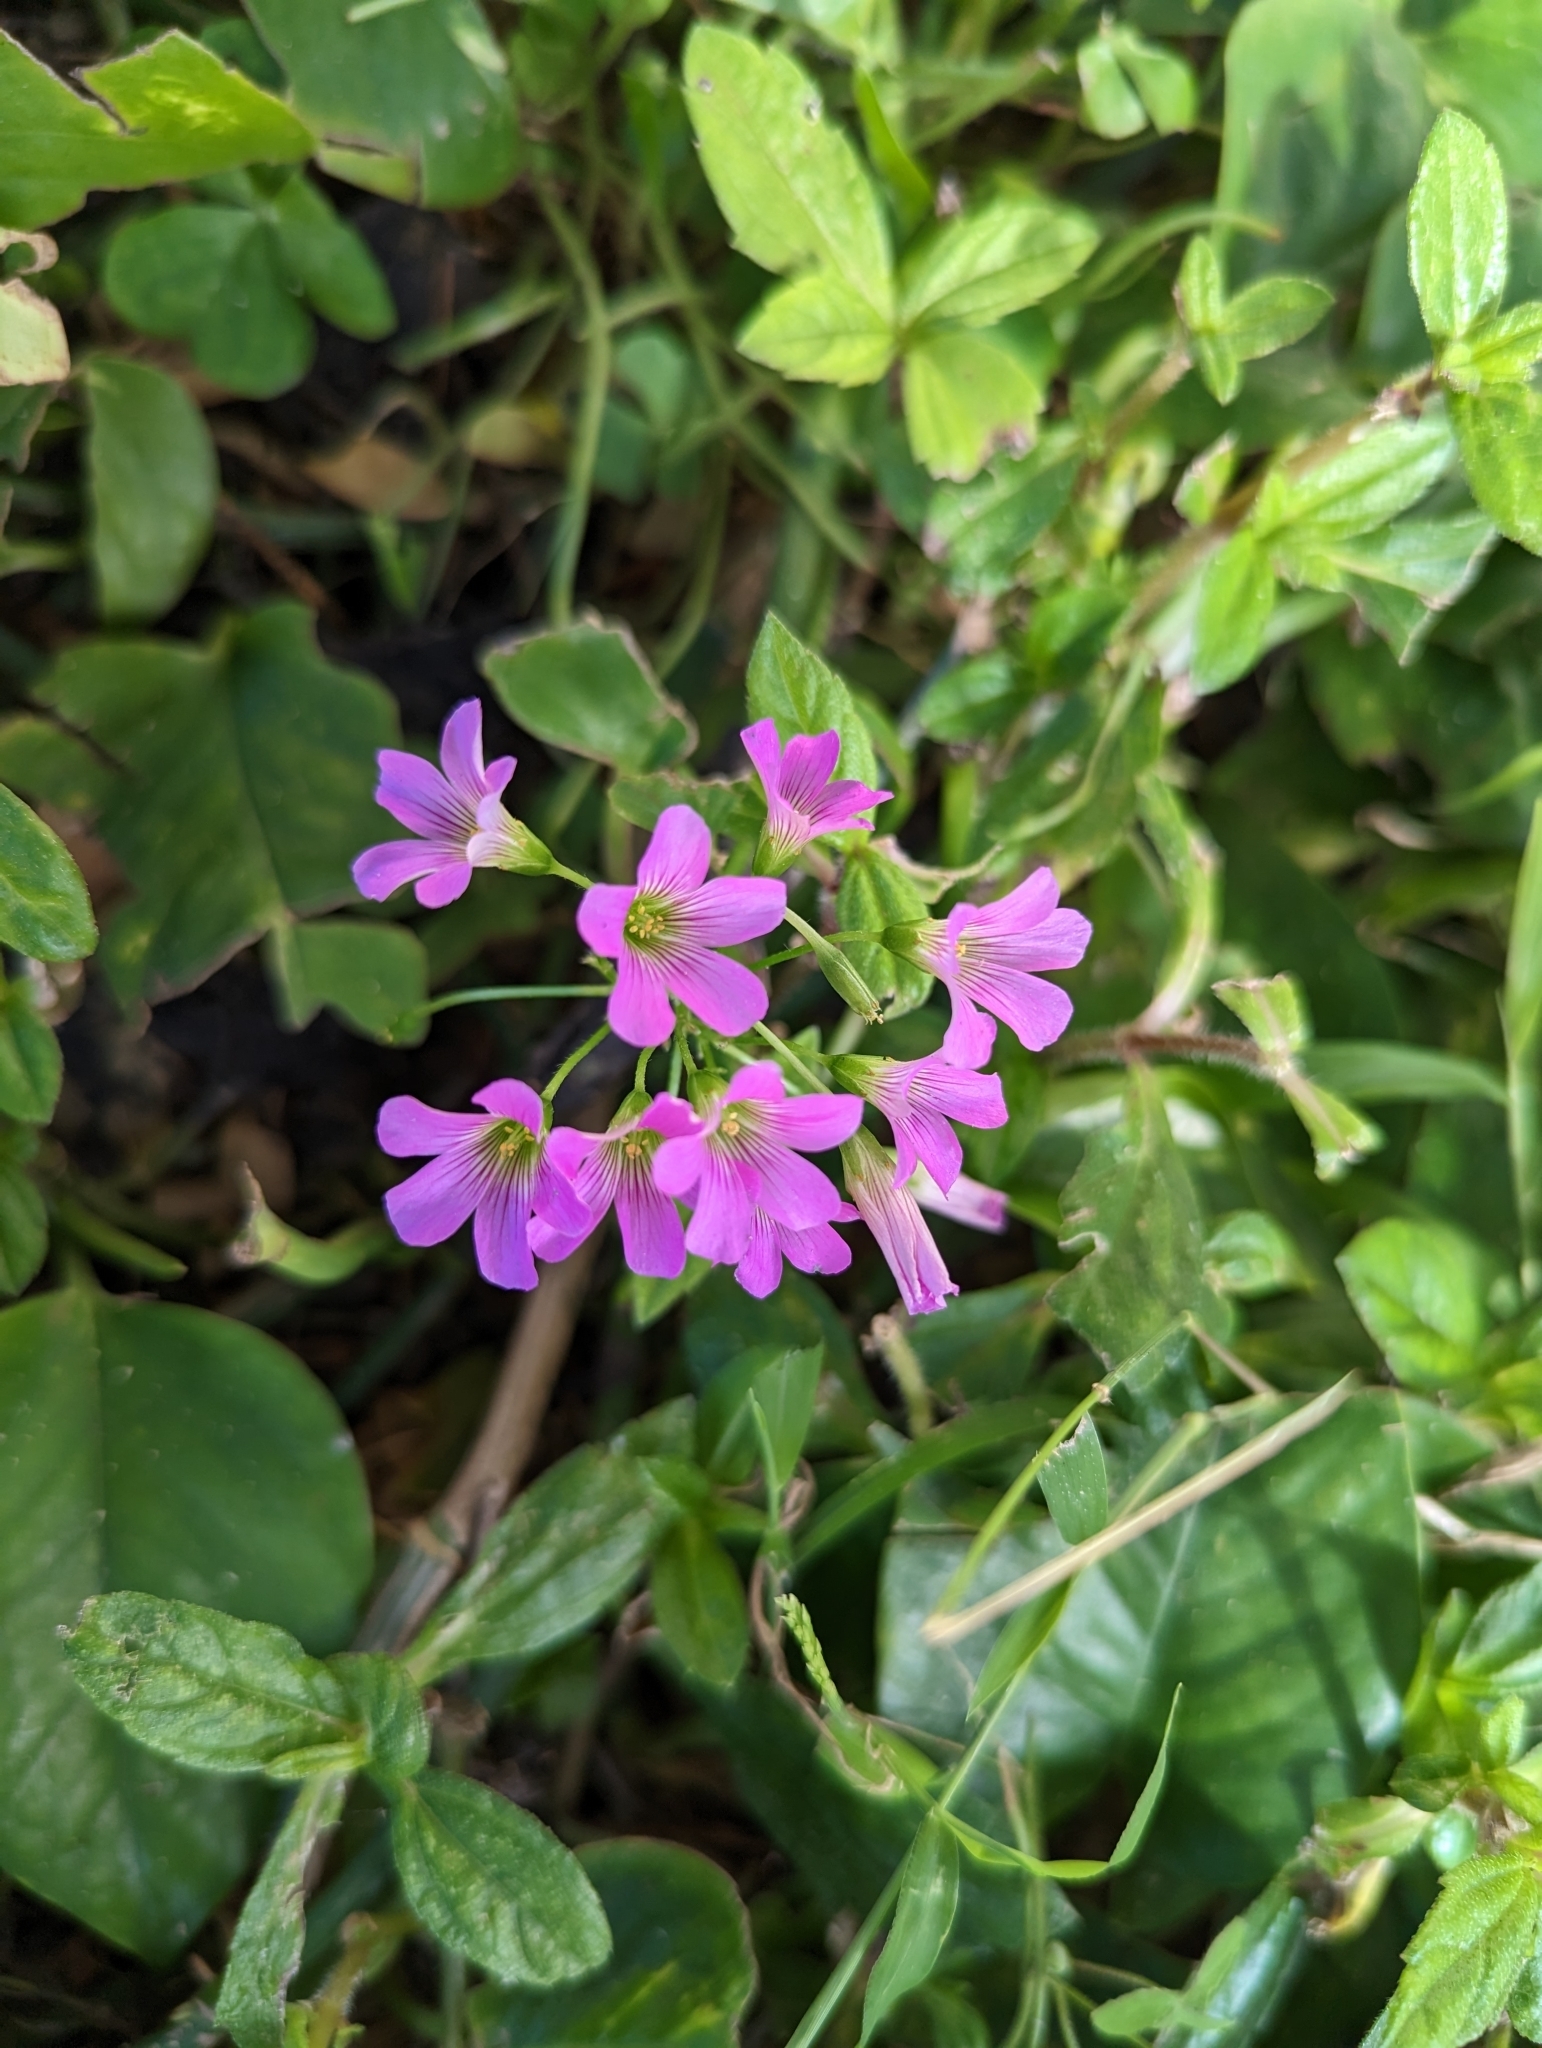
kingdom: Plantae
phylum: Tracheophyta
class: Magnoliopsida
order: Oxalidales
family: Oxalidaceae
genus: Oxalis
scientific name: Oxalis debilis
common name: Large-flowered pink-sorrel
